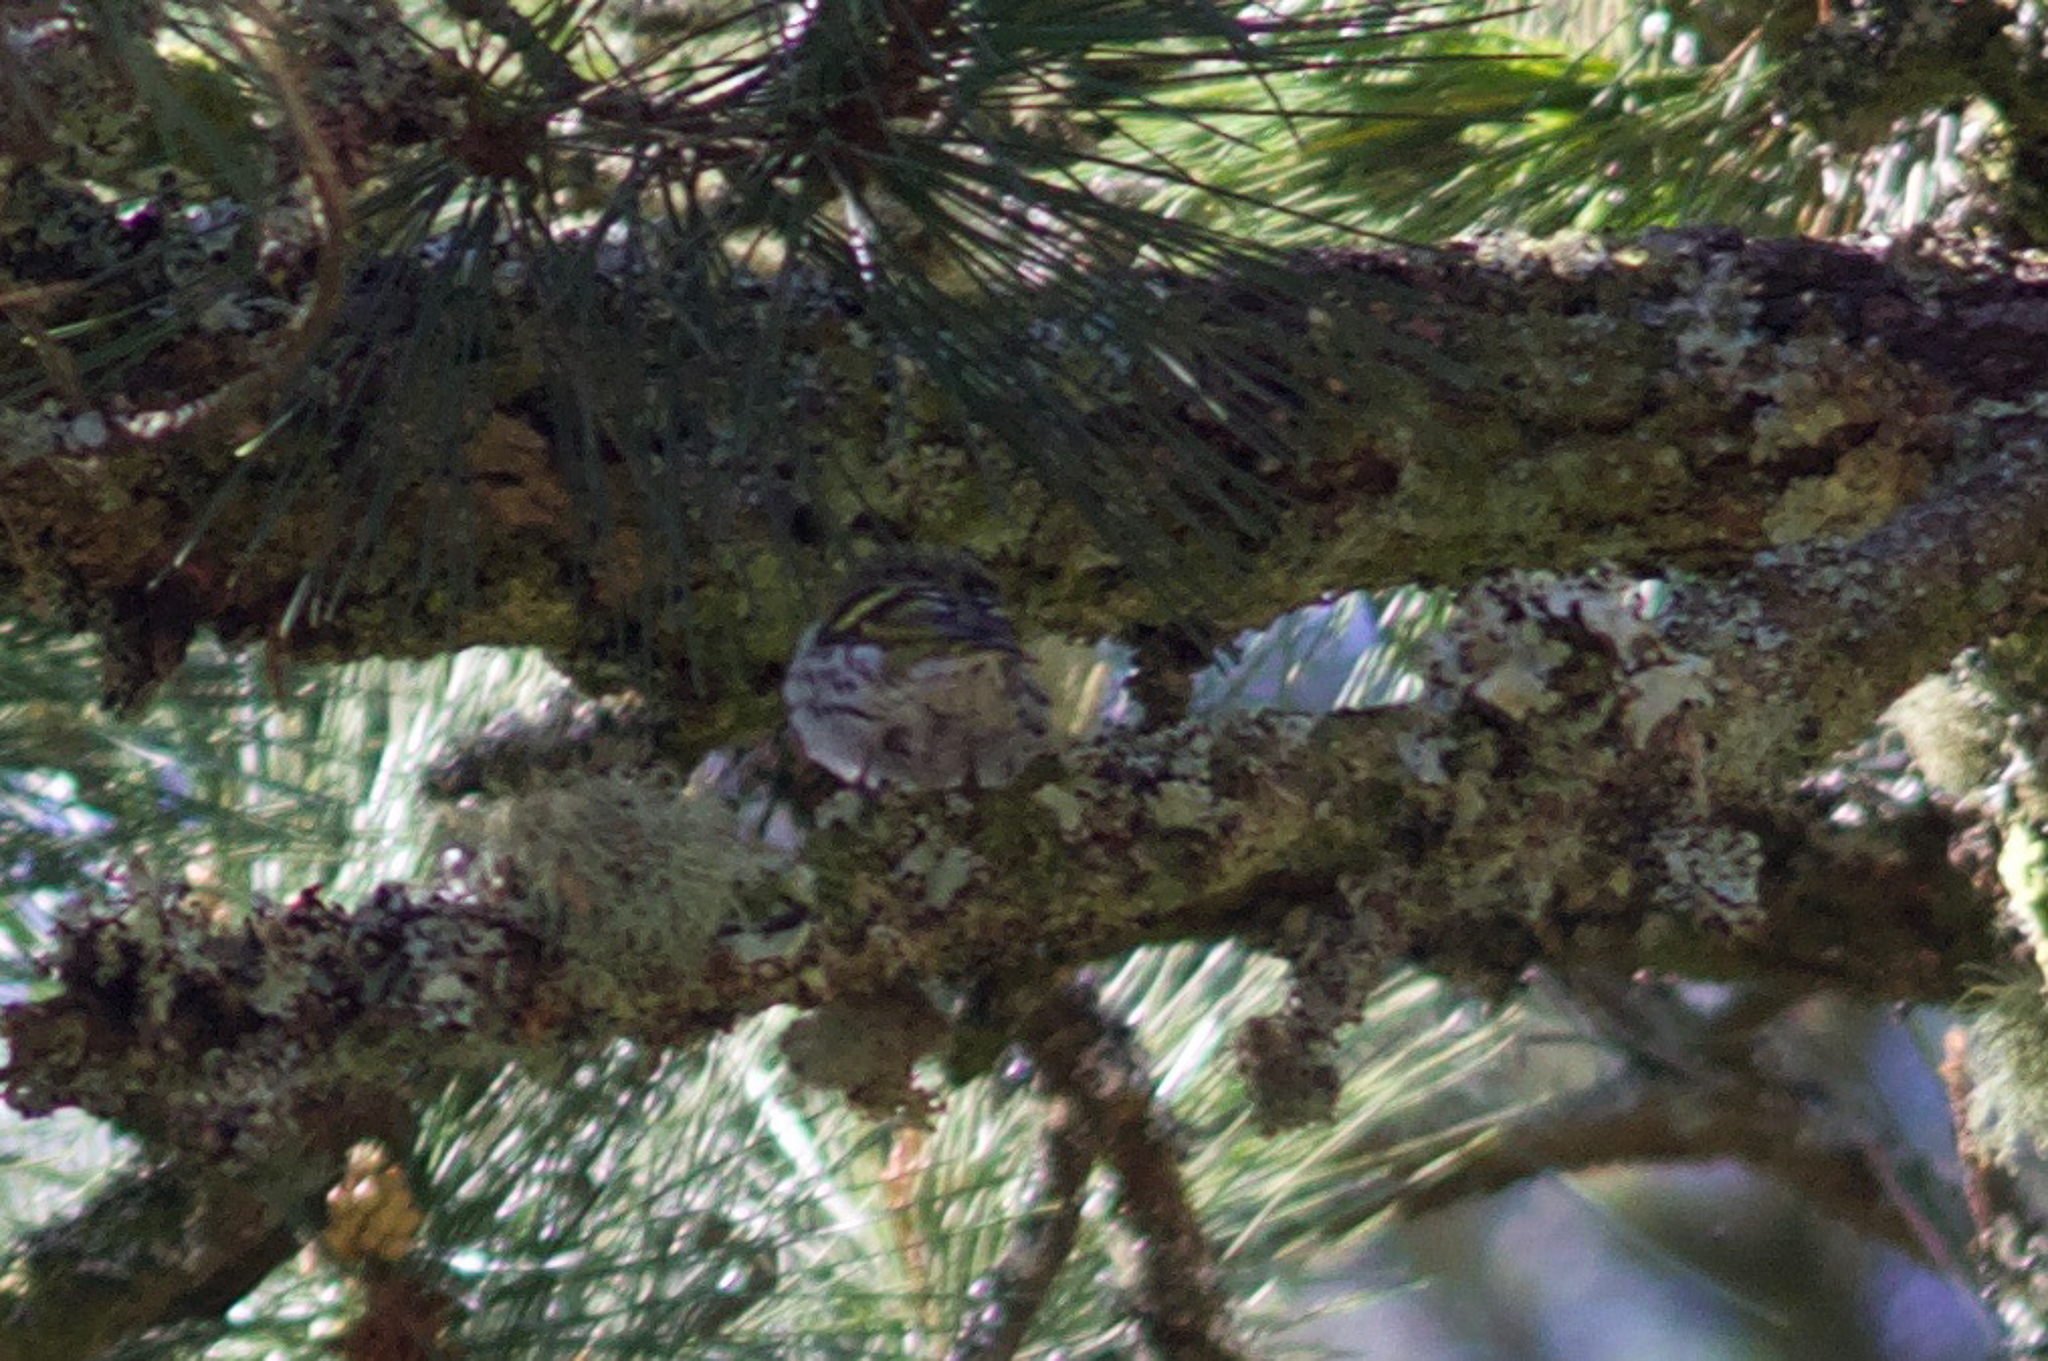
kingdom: Animalia
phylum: Chordata
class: Aves
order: Passeriformes
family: Fringillidae
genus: Spinus
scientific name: Spinus spinus
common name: Eurasian siskin
